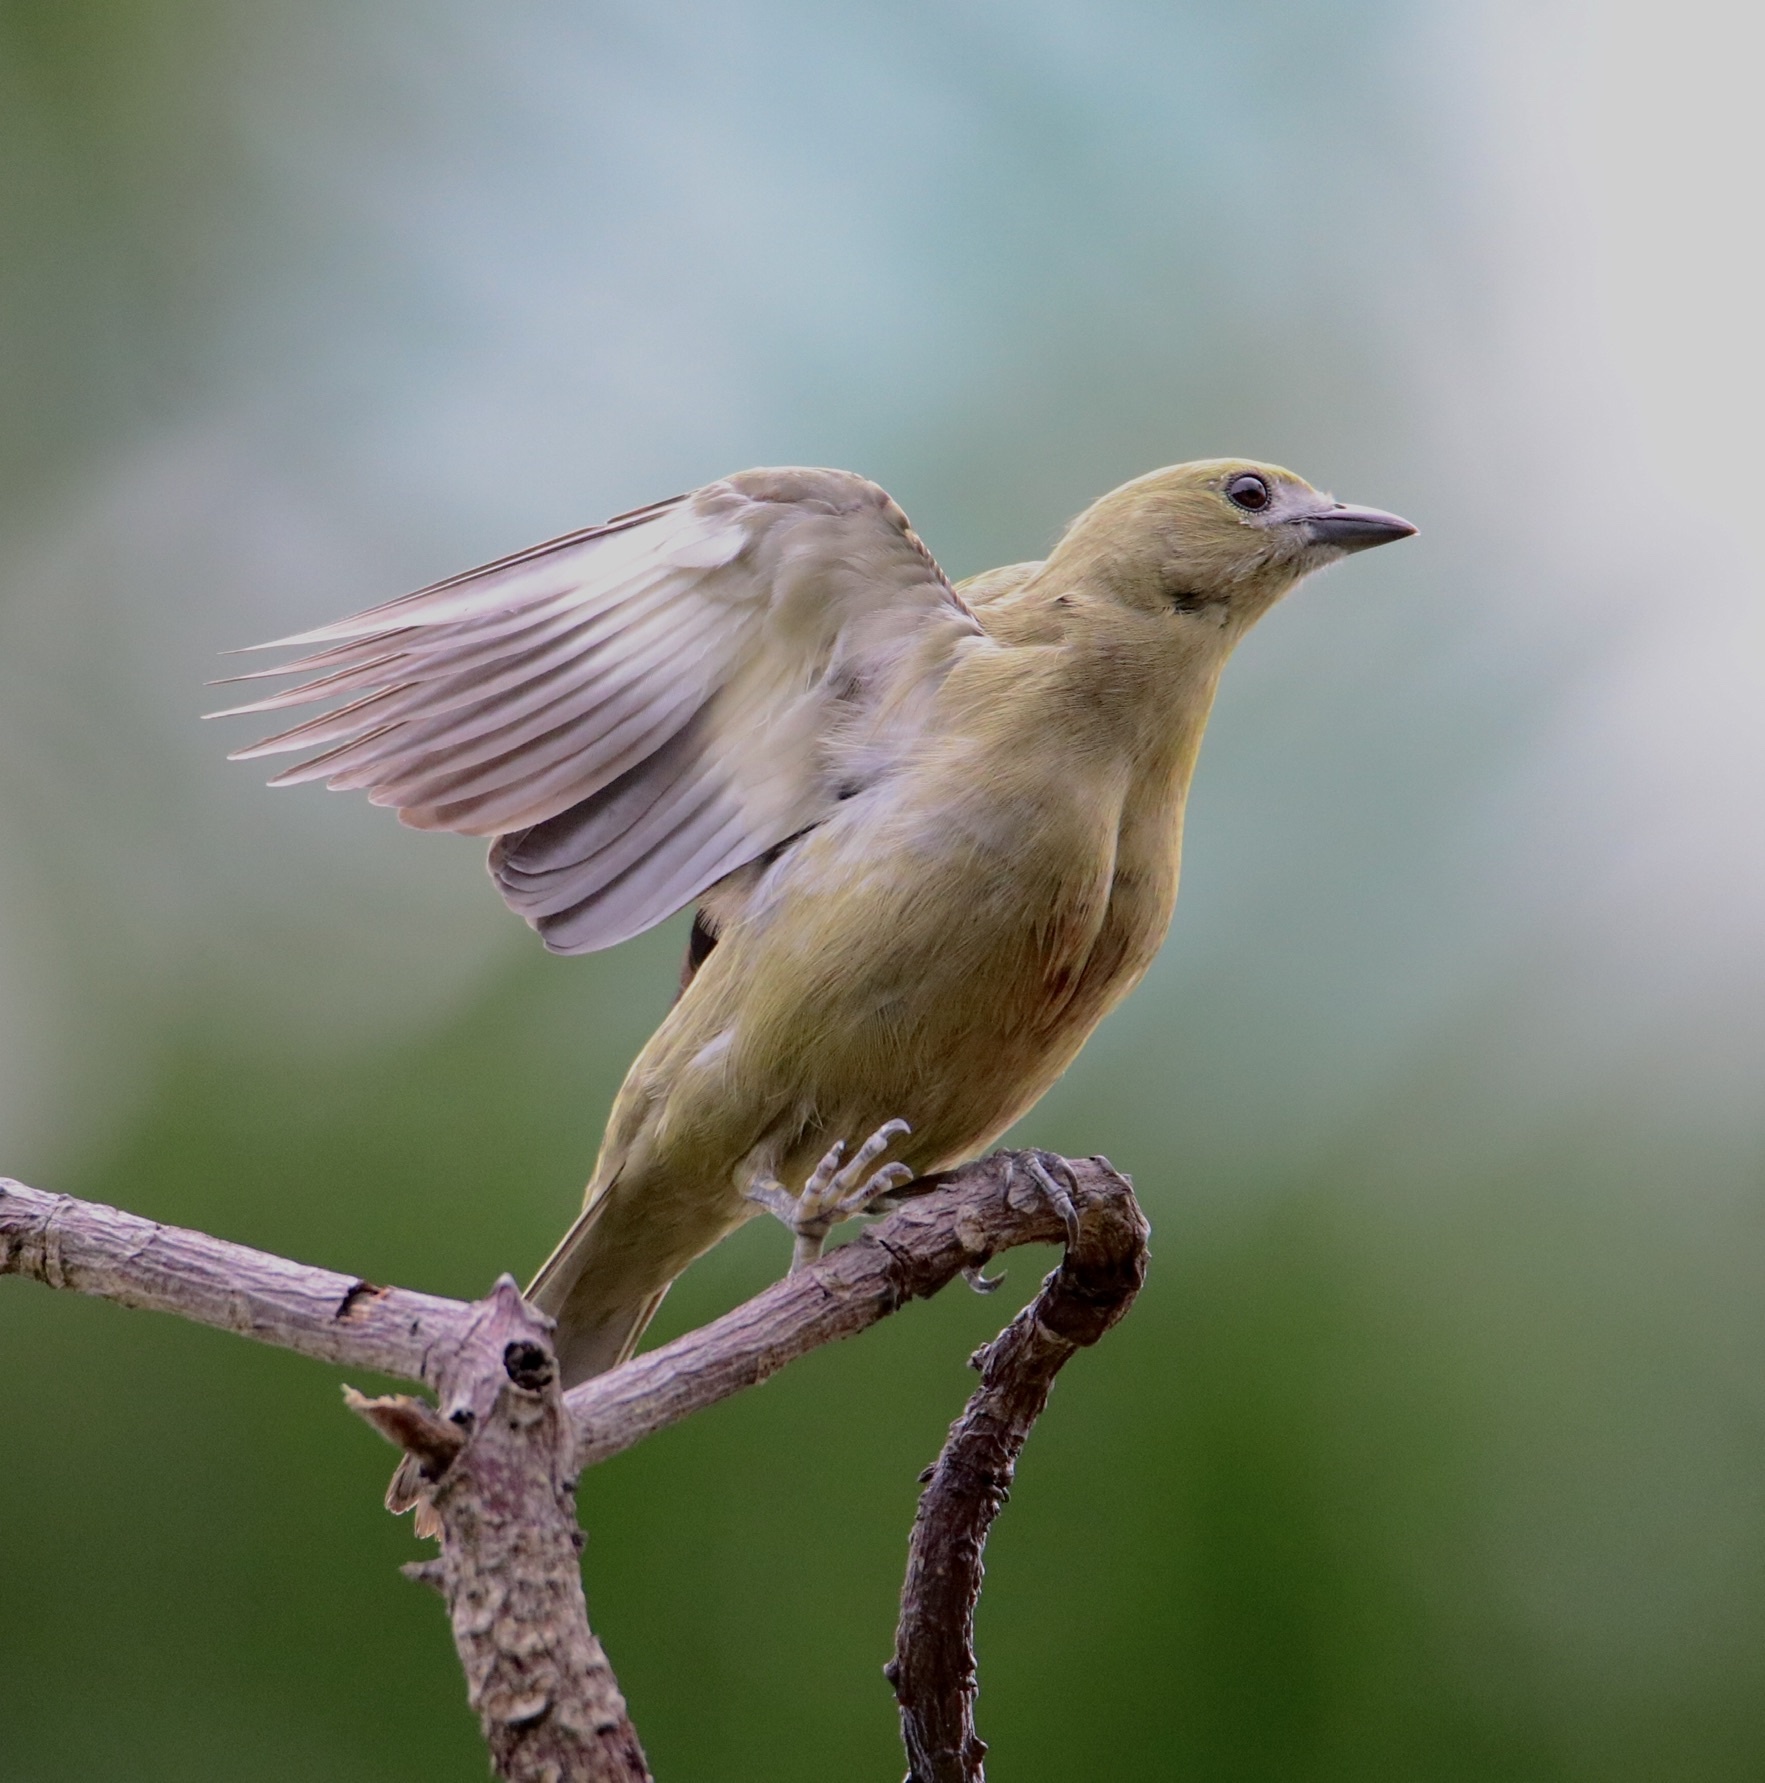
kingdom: Animalia
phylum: Chordata
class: Aves
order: Passeriformes
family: Thraupidae
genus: Thraupis
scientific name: Thraupis palmarum
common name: Palm tanager
